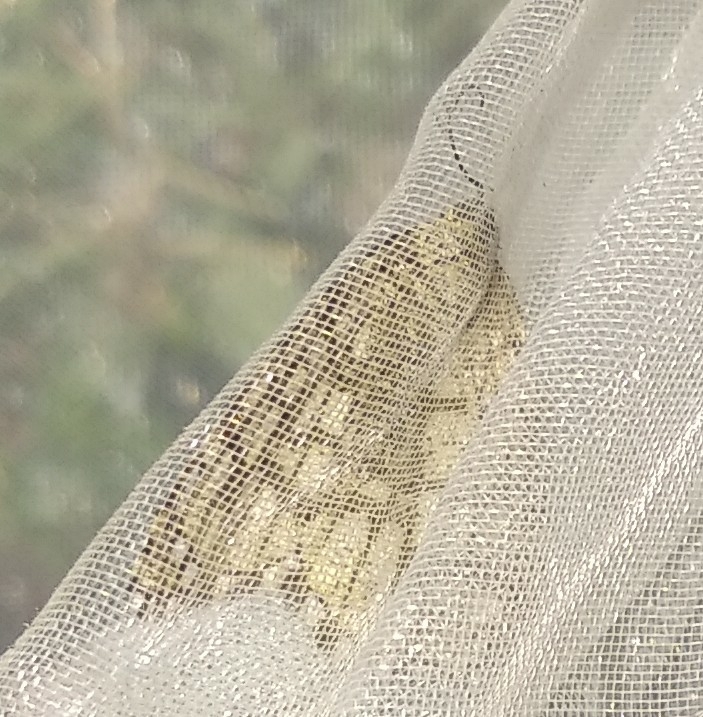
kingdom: Animalia
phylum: Arthropoda
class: Insecta
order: Lepidoptera
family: Geometridae
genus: Chiasmia
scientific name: Chiasmia clathrata
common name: Latticed heath
